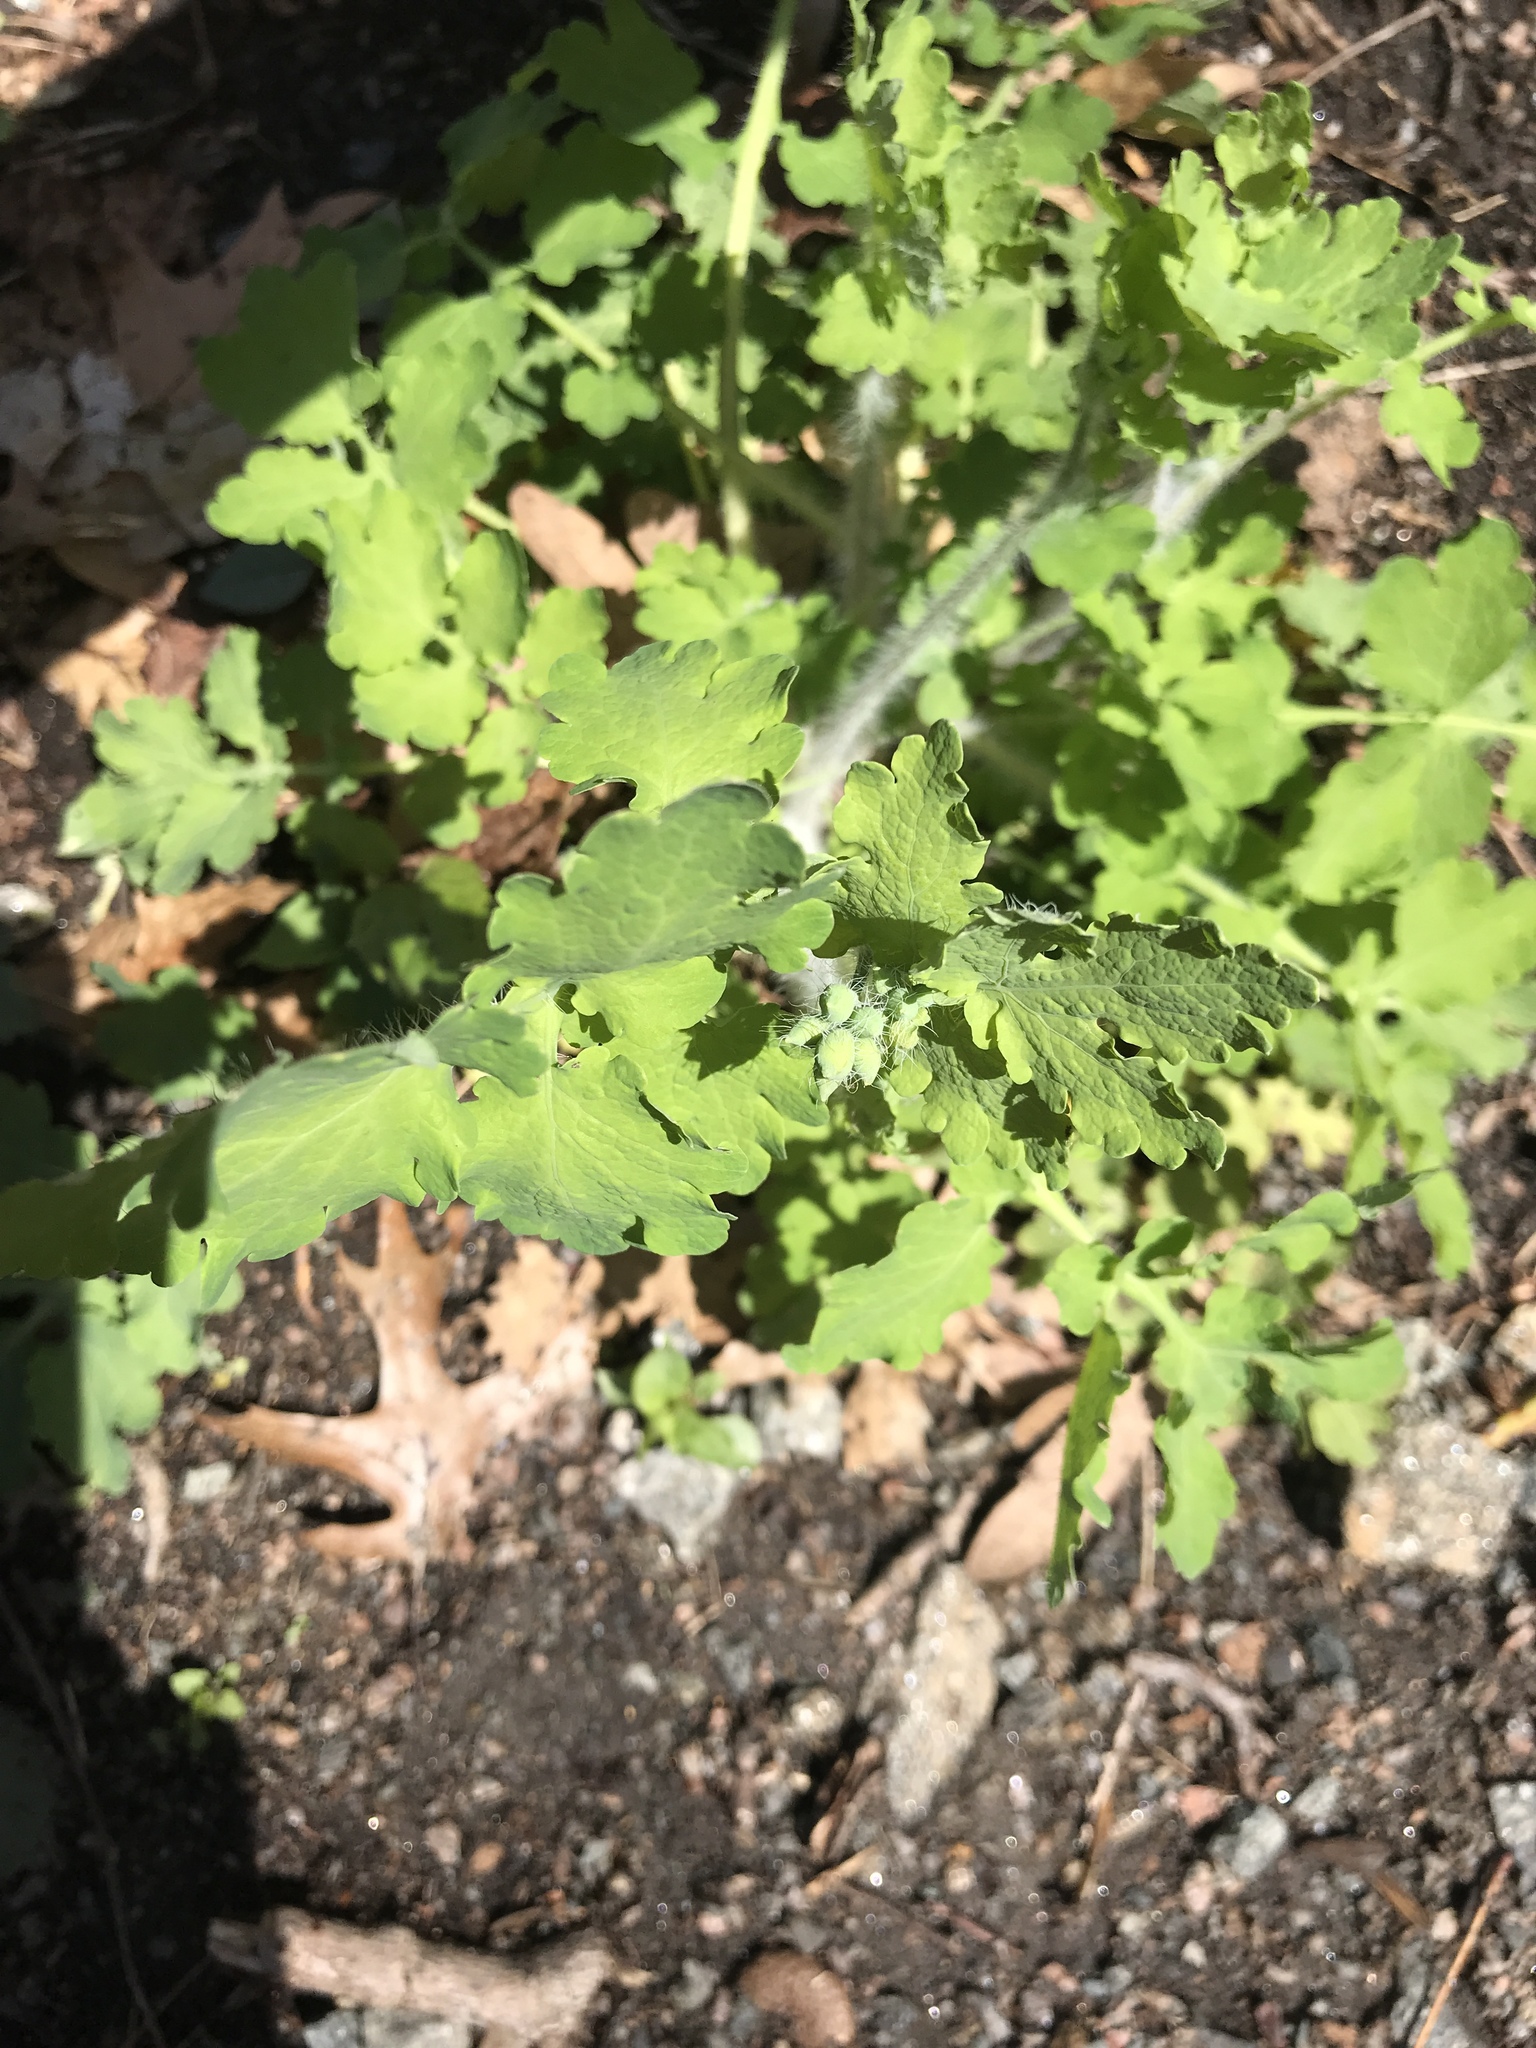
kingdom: Plantae
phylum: Tracheophyta
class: Magnoliopsida
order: Ranunculales
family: Papaveraceae
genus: Chelidonium
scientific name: Chelidonium majus
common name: Greater celandine
